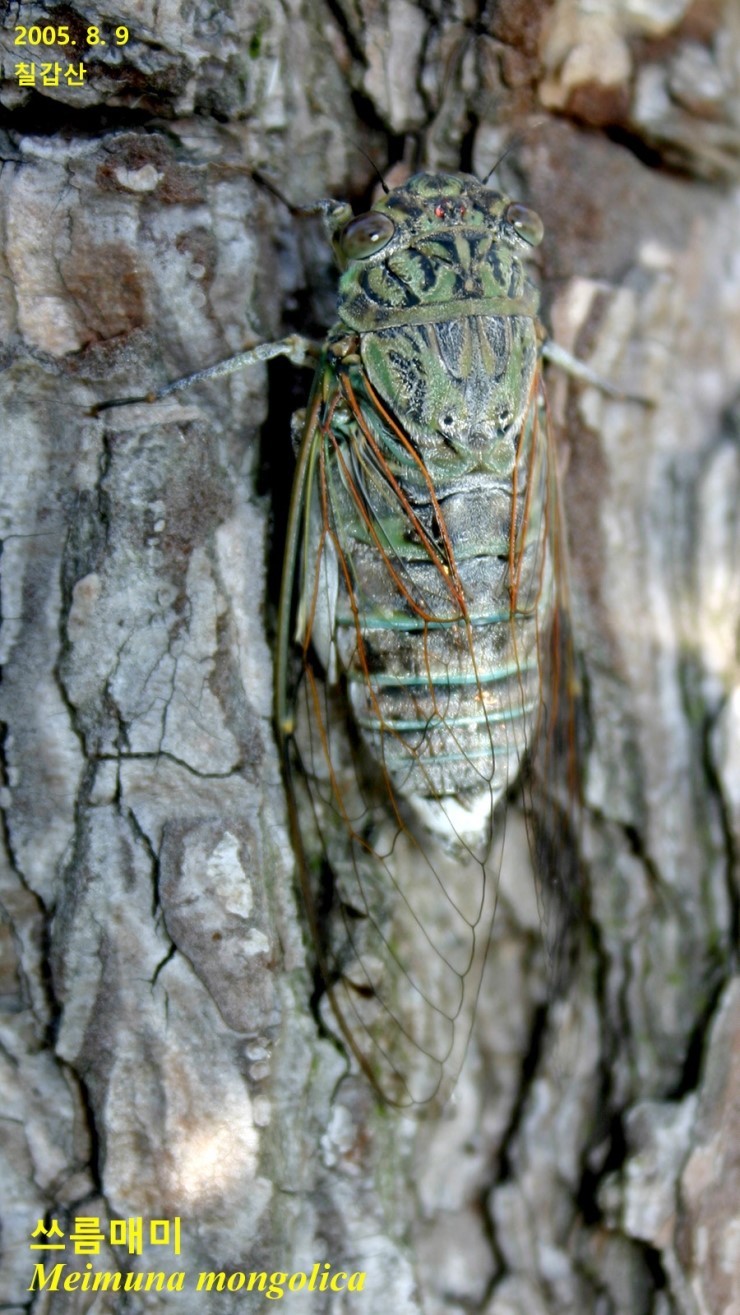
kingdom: Animalia
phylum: Arthropoda
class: Insecta
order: Hemiptera
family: Cicadidae
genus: Meimuna
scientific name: Meimuna mongolica
